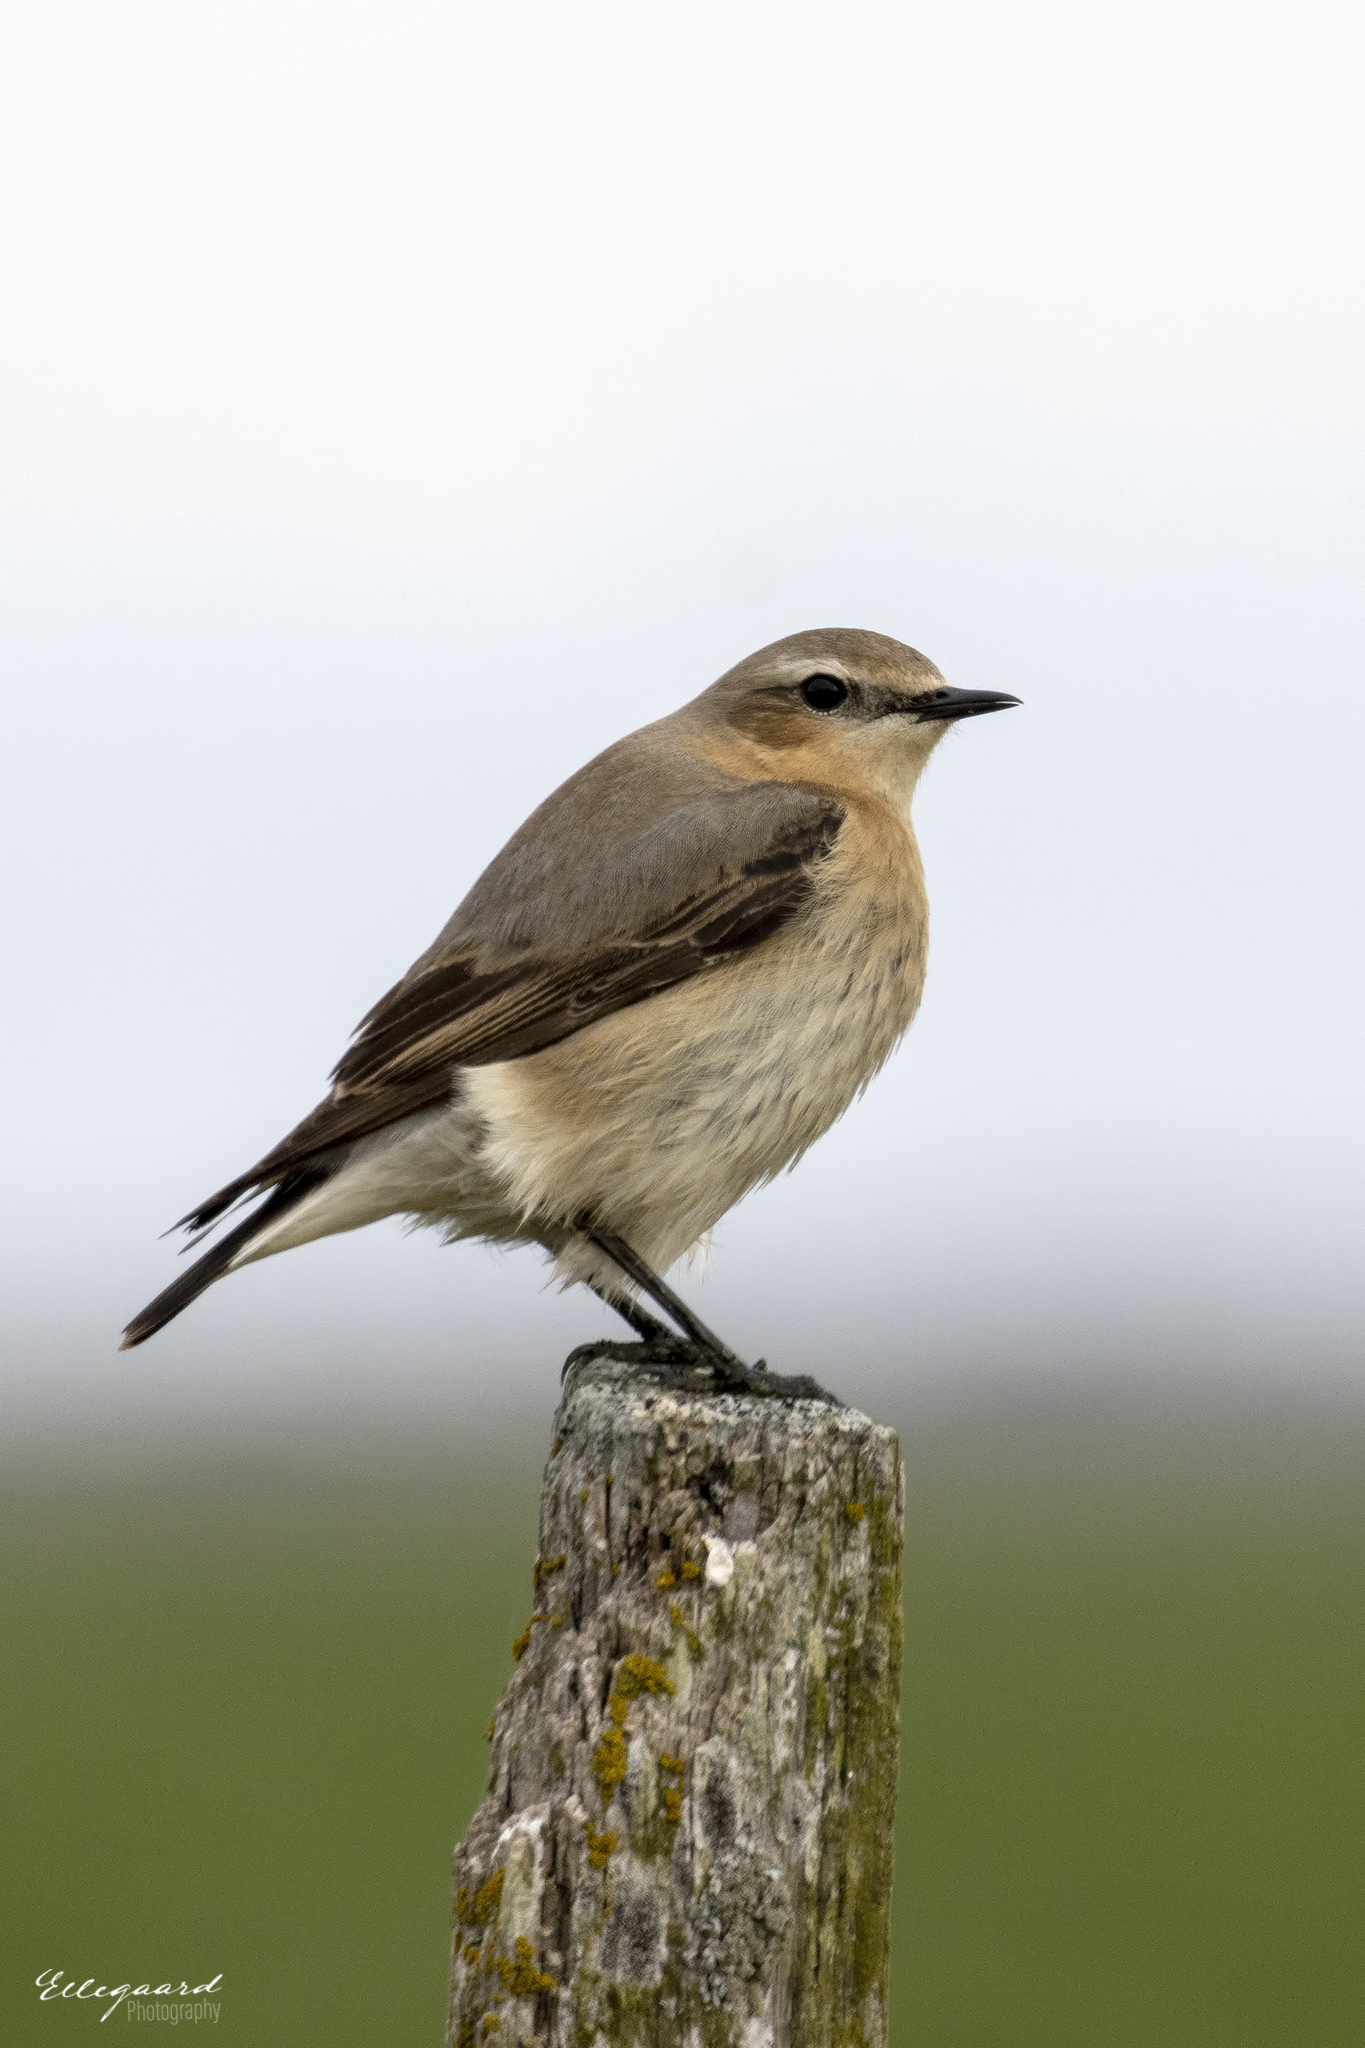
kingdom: Animalia
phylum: Chordata
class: Aves
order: Passeriformes
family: Muscicapidae
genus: Oenanthe
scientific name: Oenanthe oenanthe
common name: Northern wheatear
